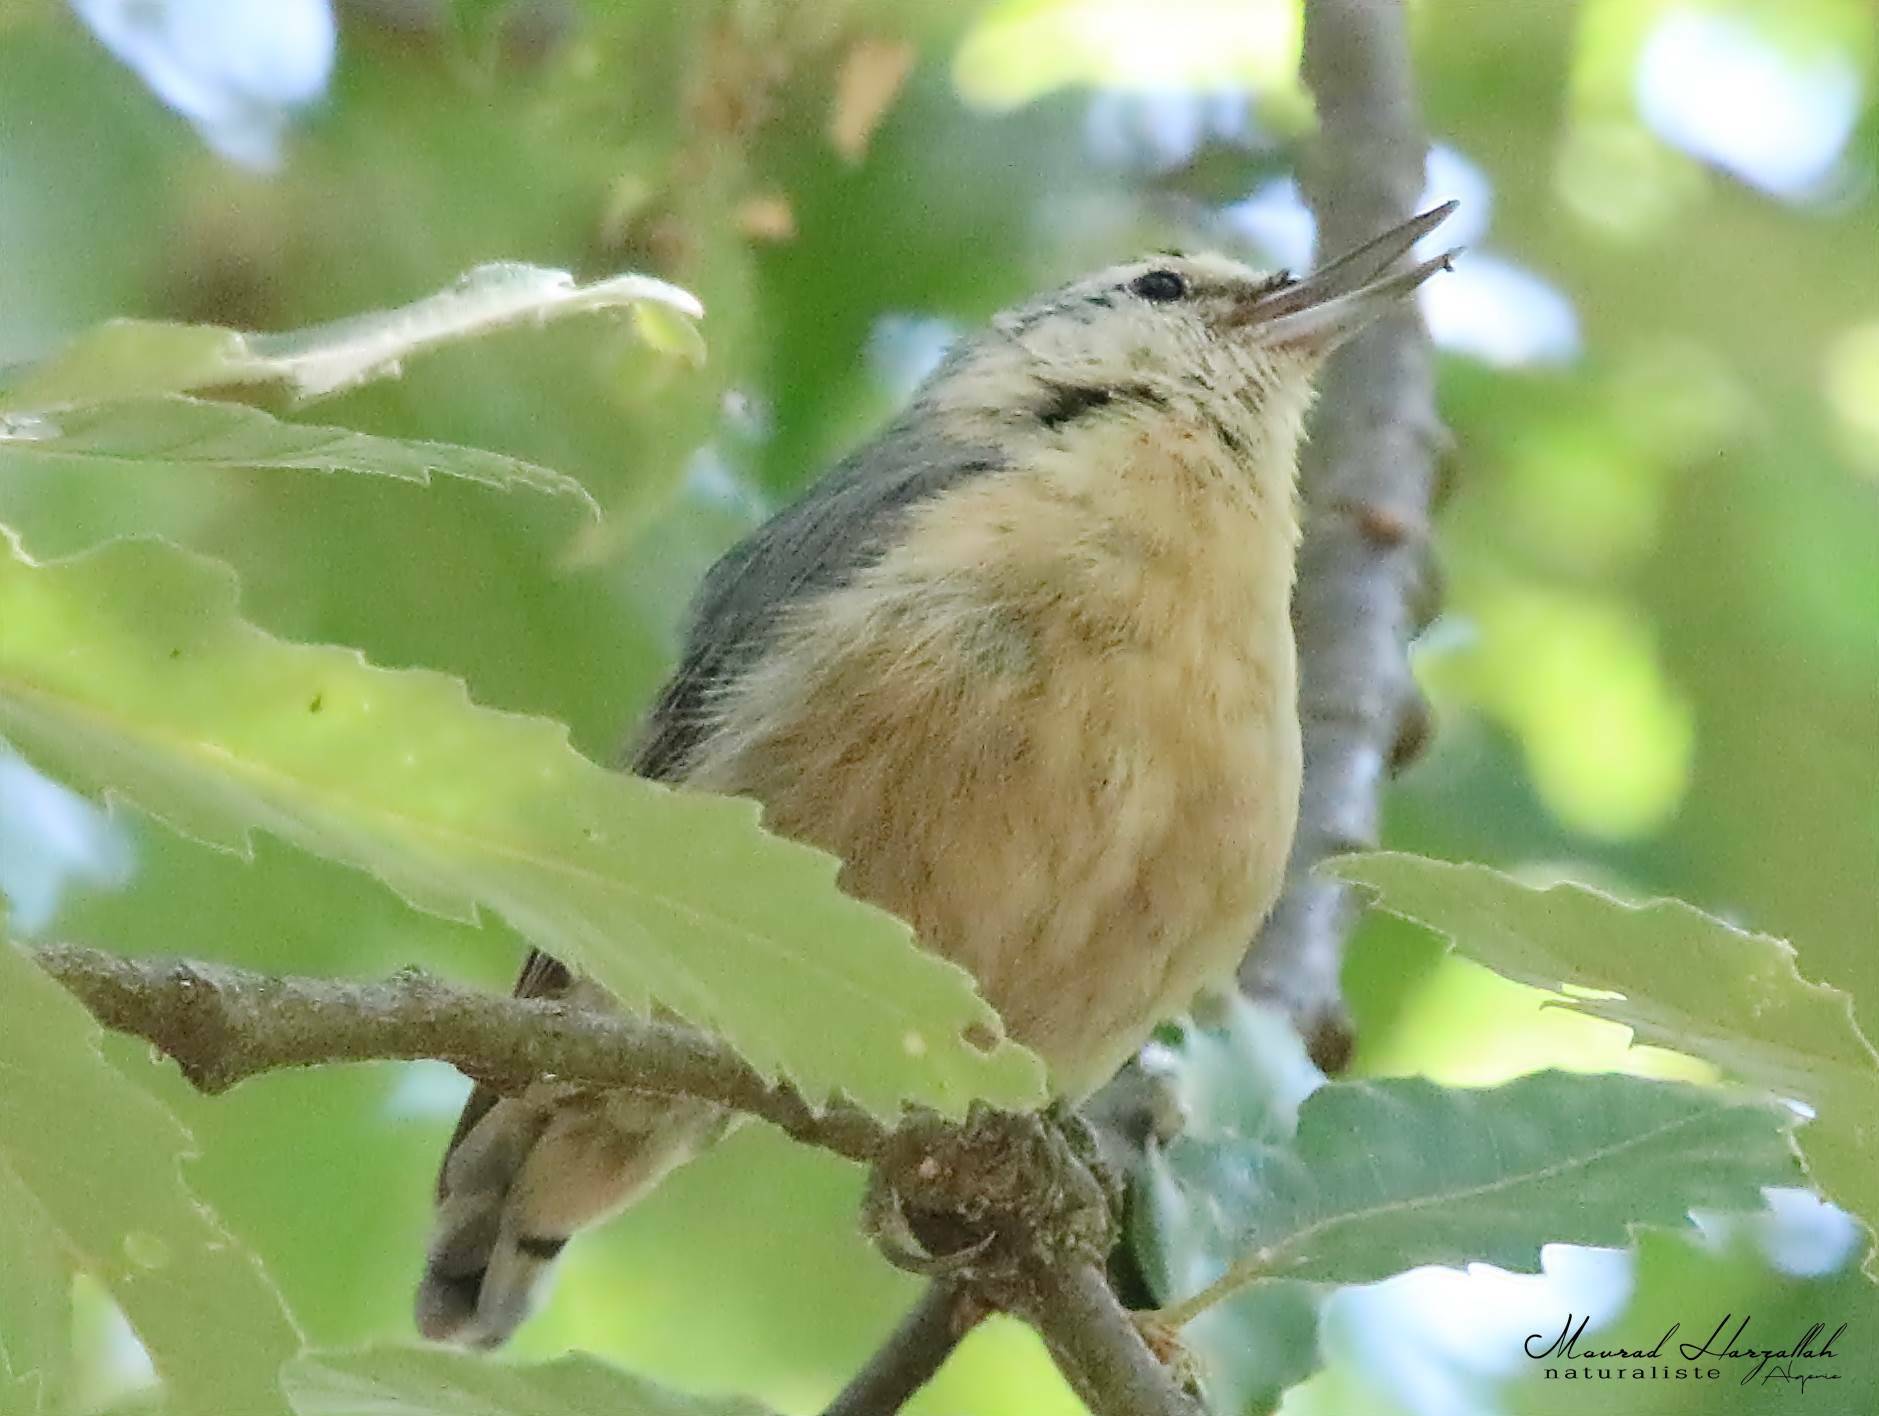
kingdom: Animalia
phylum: Chordata
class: Aves
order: Passeriformes
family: Sittidae
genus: Sitta
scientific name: Sitta ledanti
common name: Algerian nuthatch
